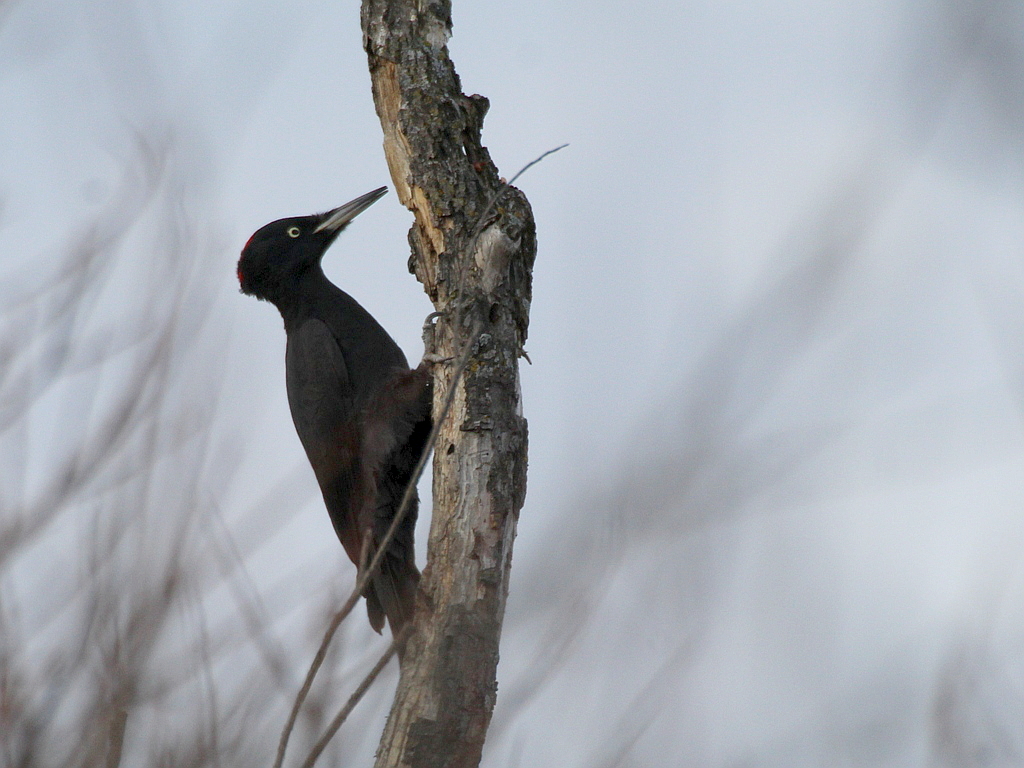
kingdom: Animalia
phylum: Chordata
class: Aves
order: Piciformes
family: Picidae
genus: Dryocopus
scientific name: Dryocopus martius
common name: Black woodpecker
